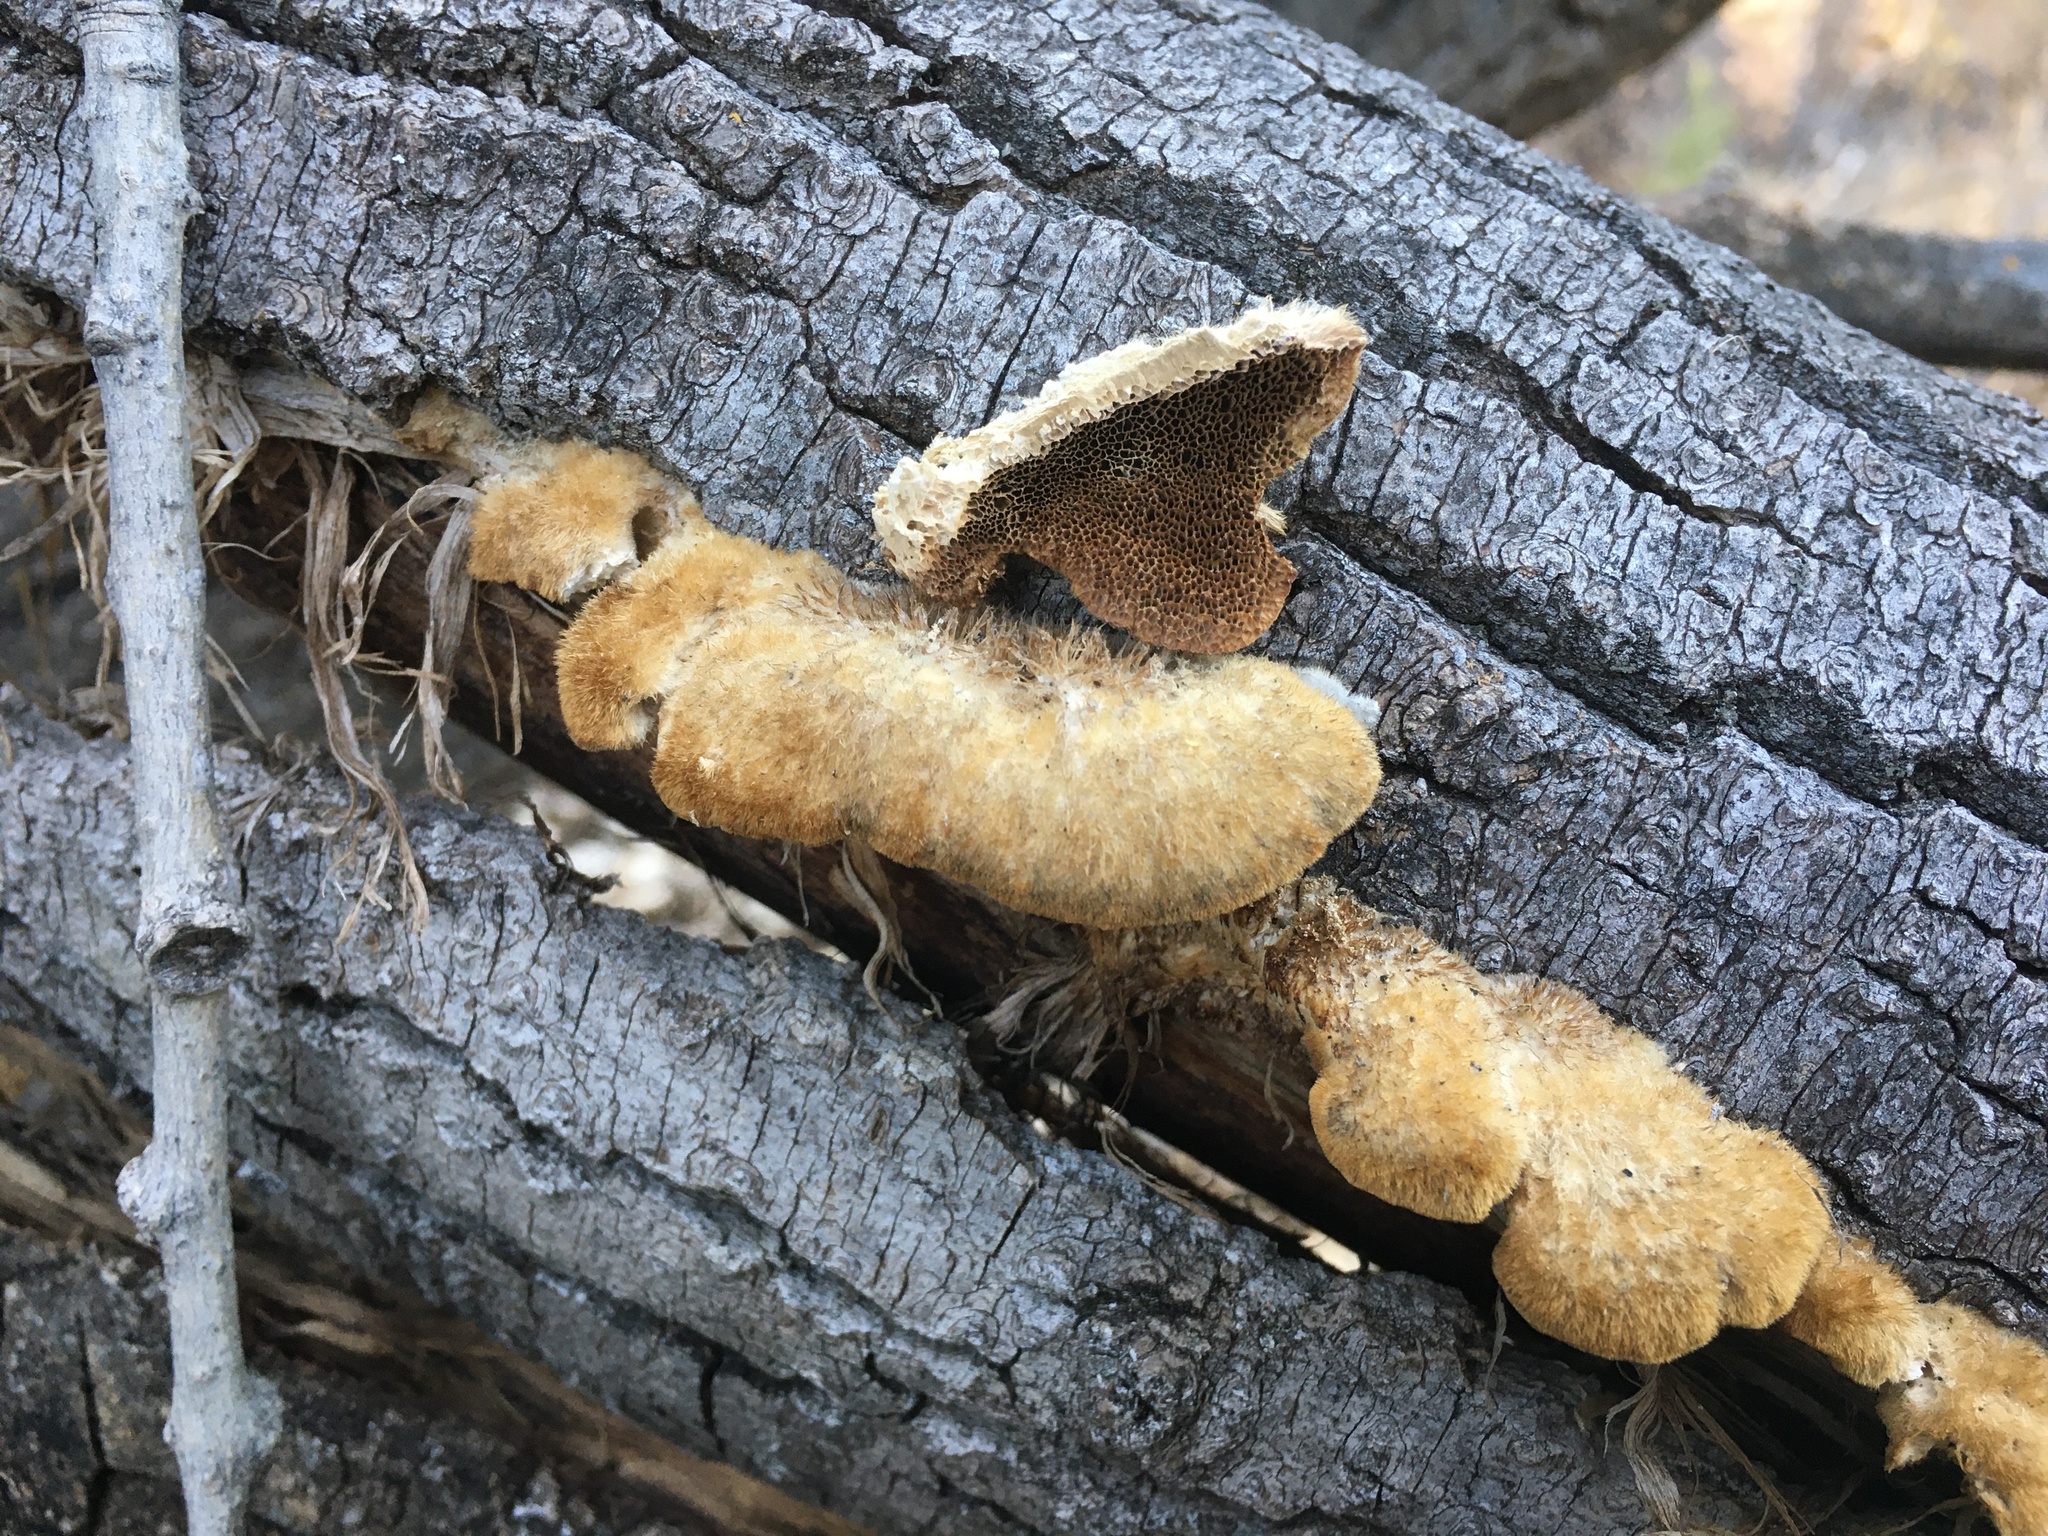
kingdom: Fungi
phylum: Basidiomycota
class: Agaricomycetes
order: Polyporales
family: Polyporaceae
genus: Trametes
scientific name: Trametes trogii
